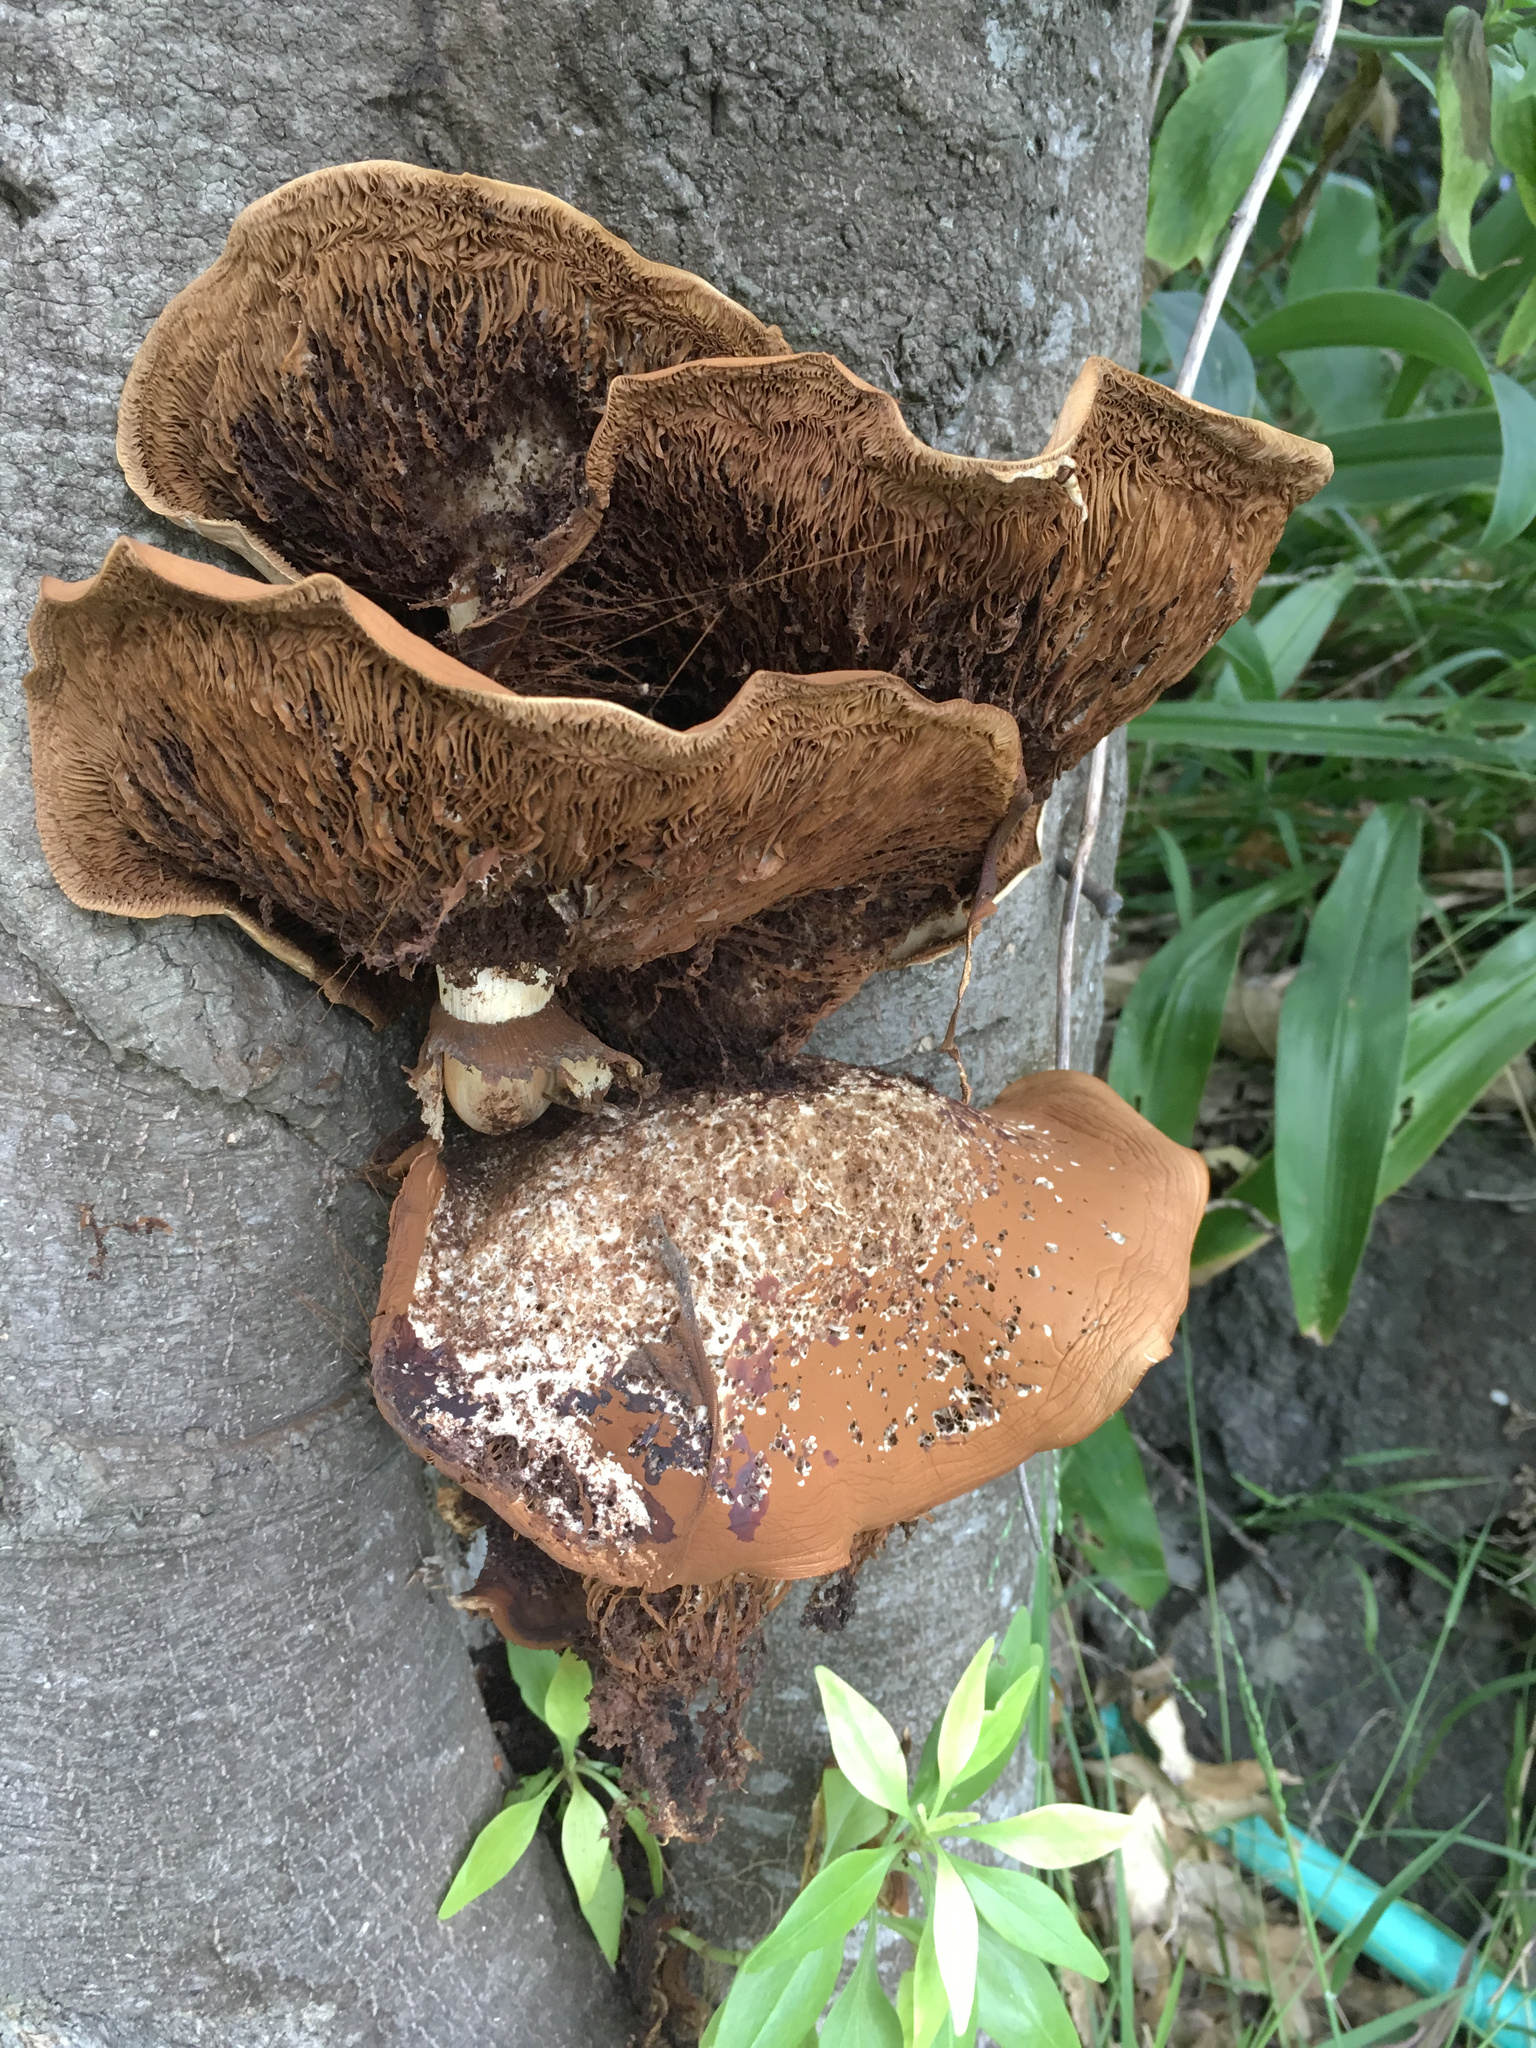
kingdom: Fungi
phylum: Basidiomycota
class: Agaricomycetes
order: Agaricales
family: Tubariaceae
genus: Cyclocybe
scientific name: Cyclocybe parasitica
